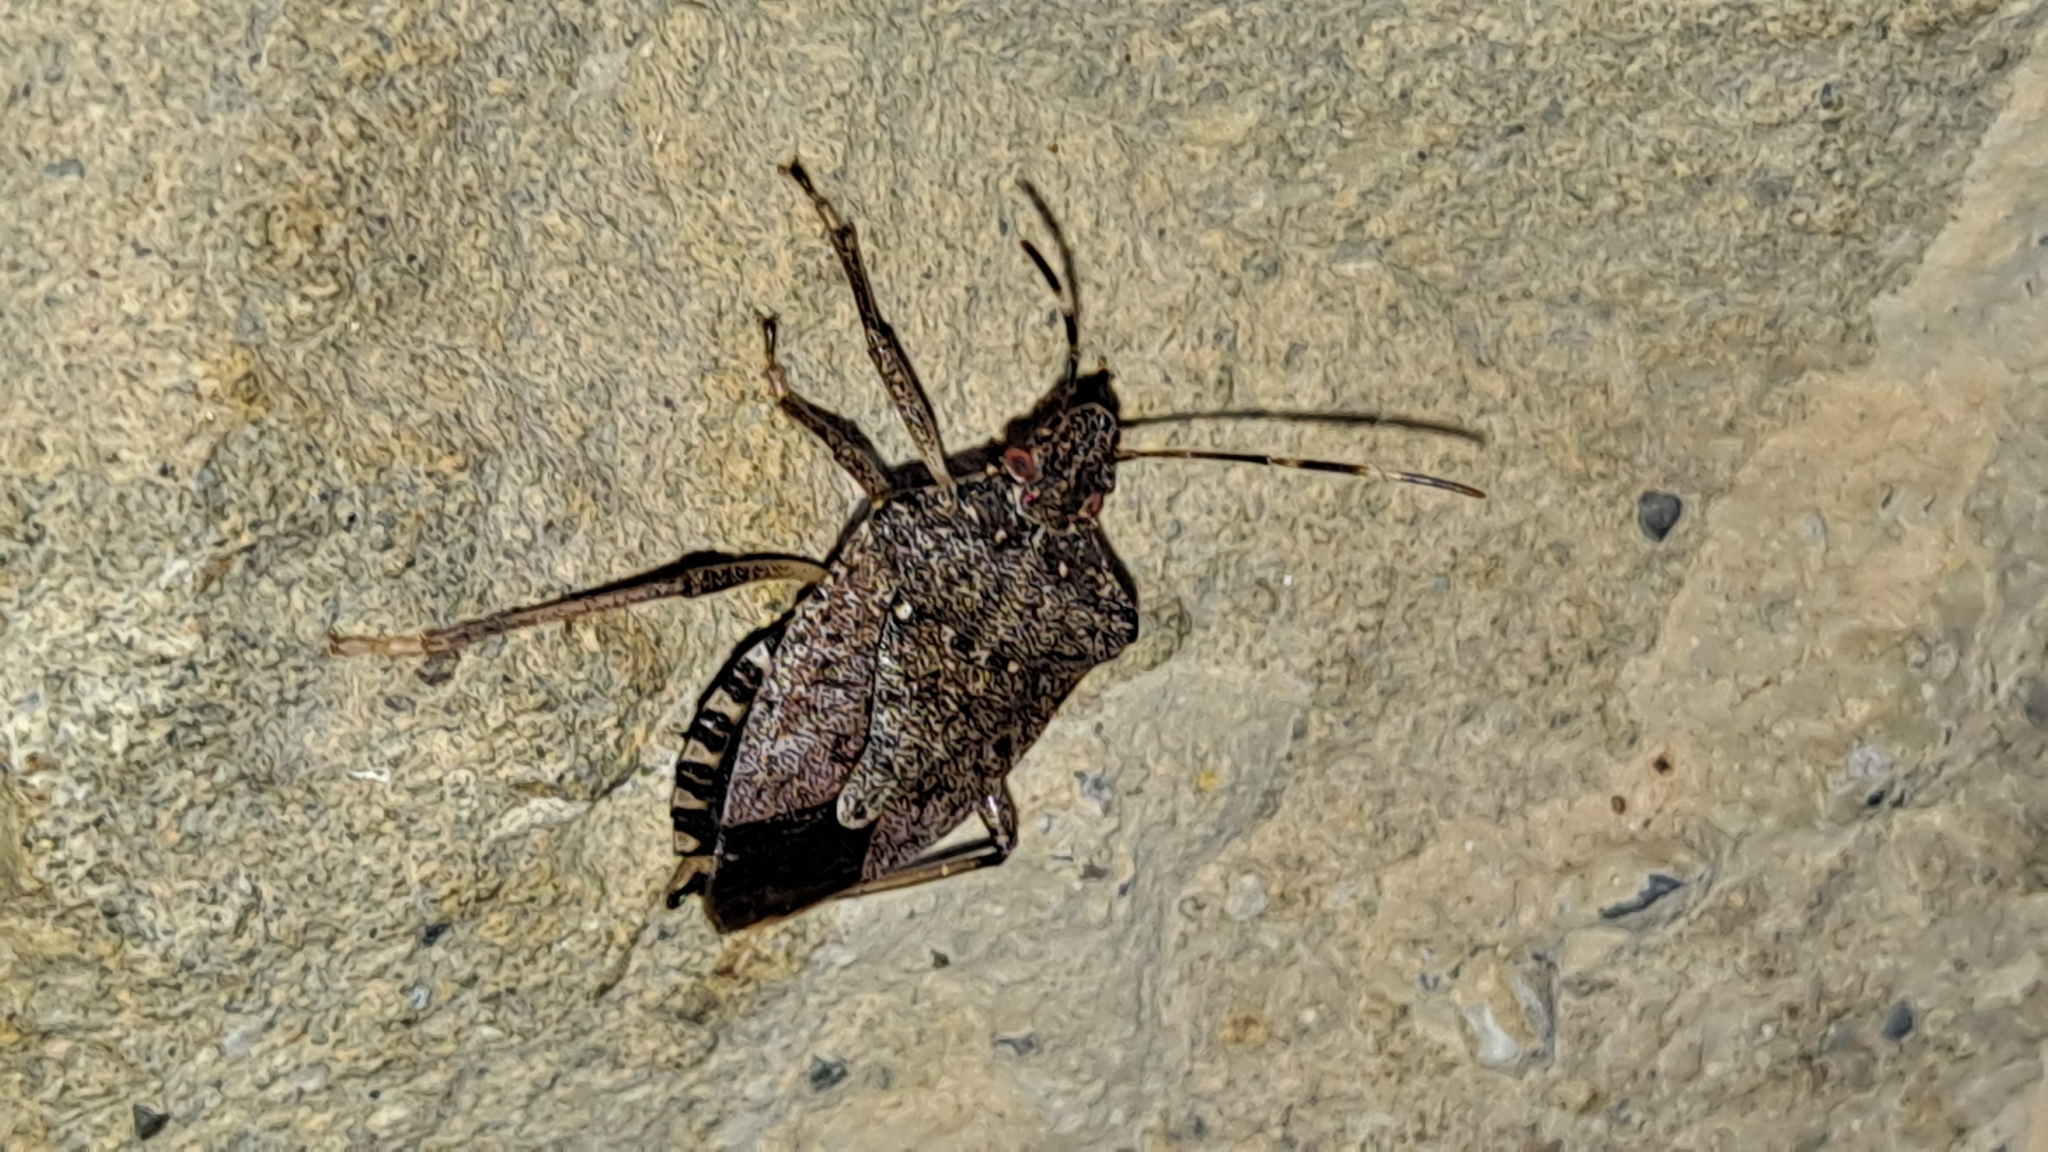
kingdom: Animalia
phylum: Arthropoda
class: Insecta
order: Hemiptera
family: Pentatomidae
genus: Halyomorpha
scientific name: Halyomorpha halys
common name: Brown marmorated stink bug
